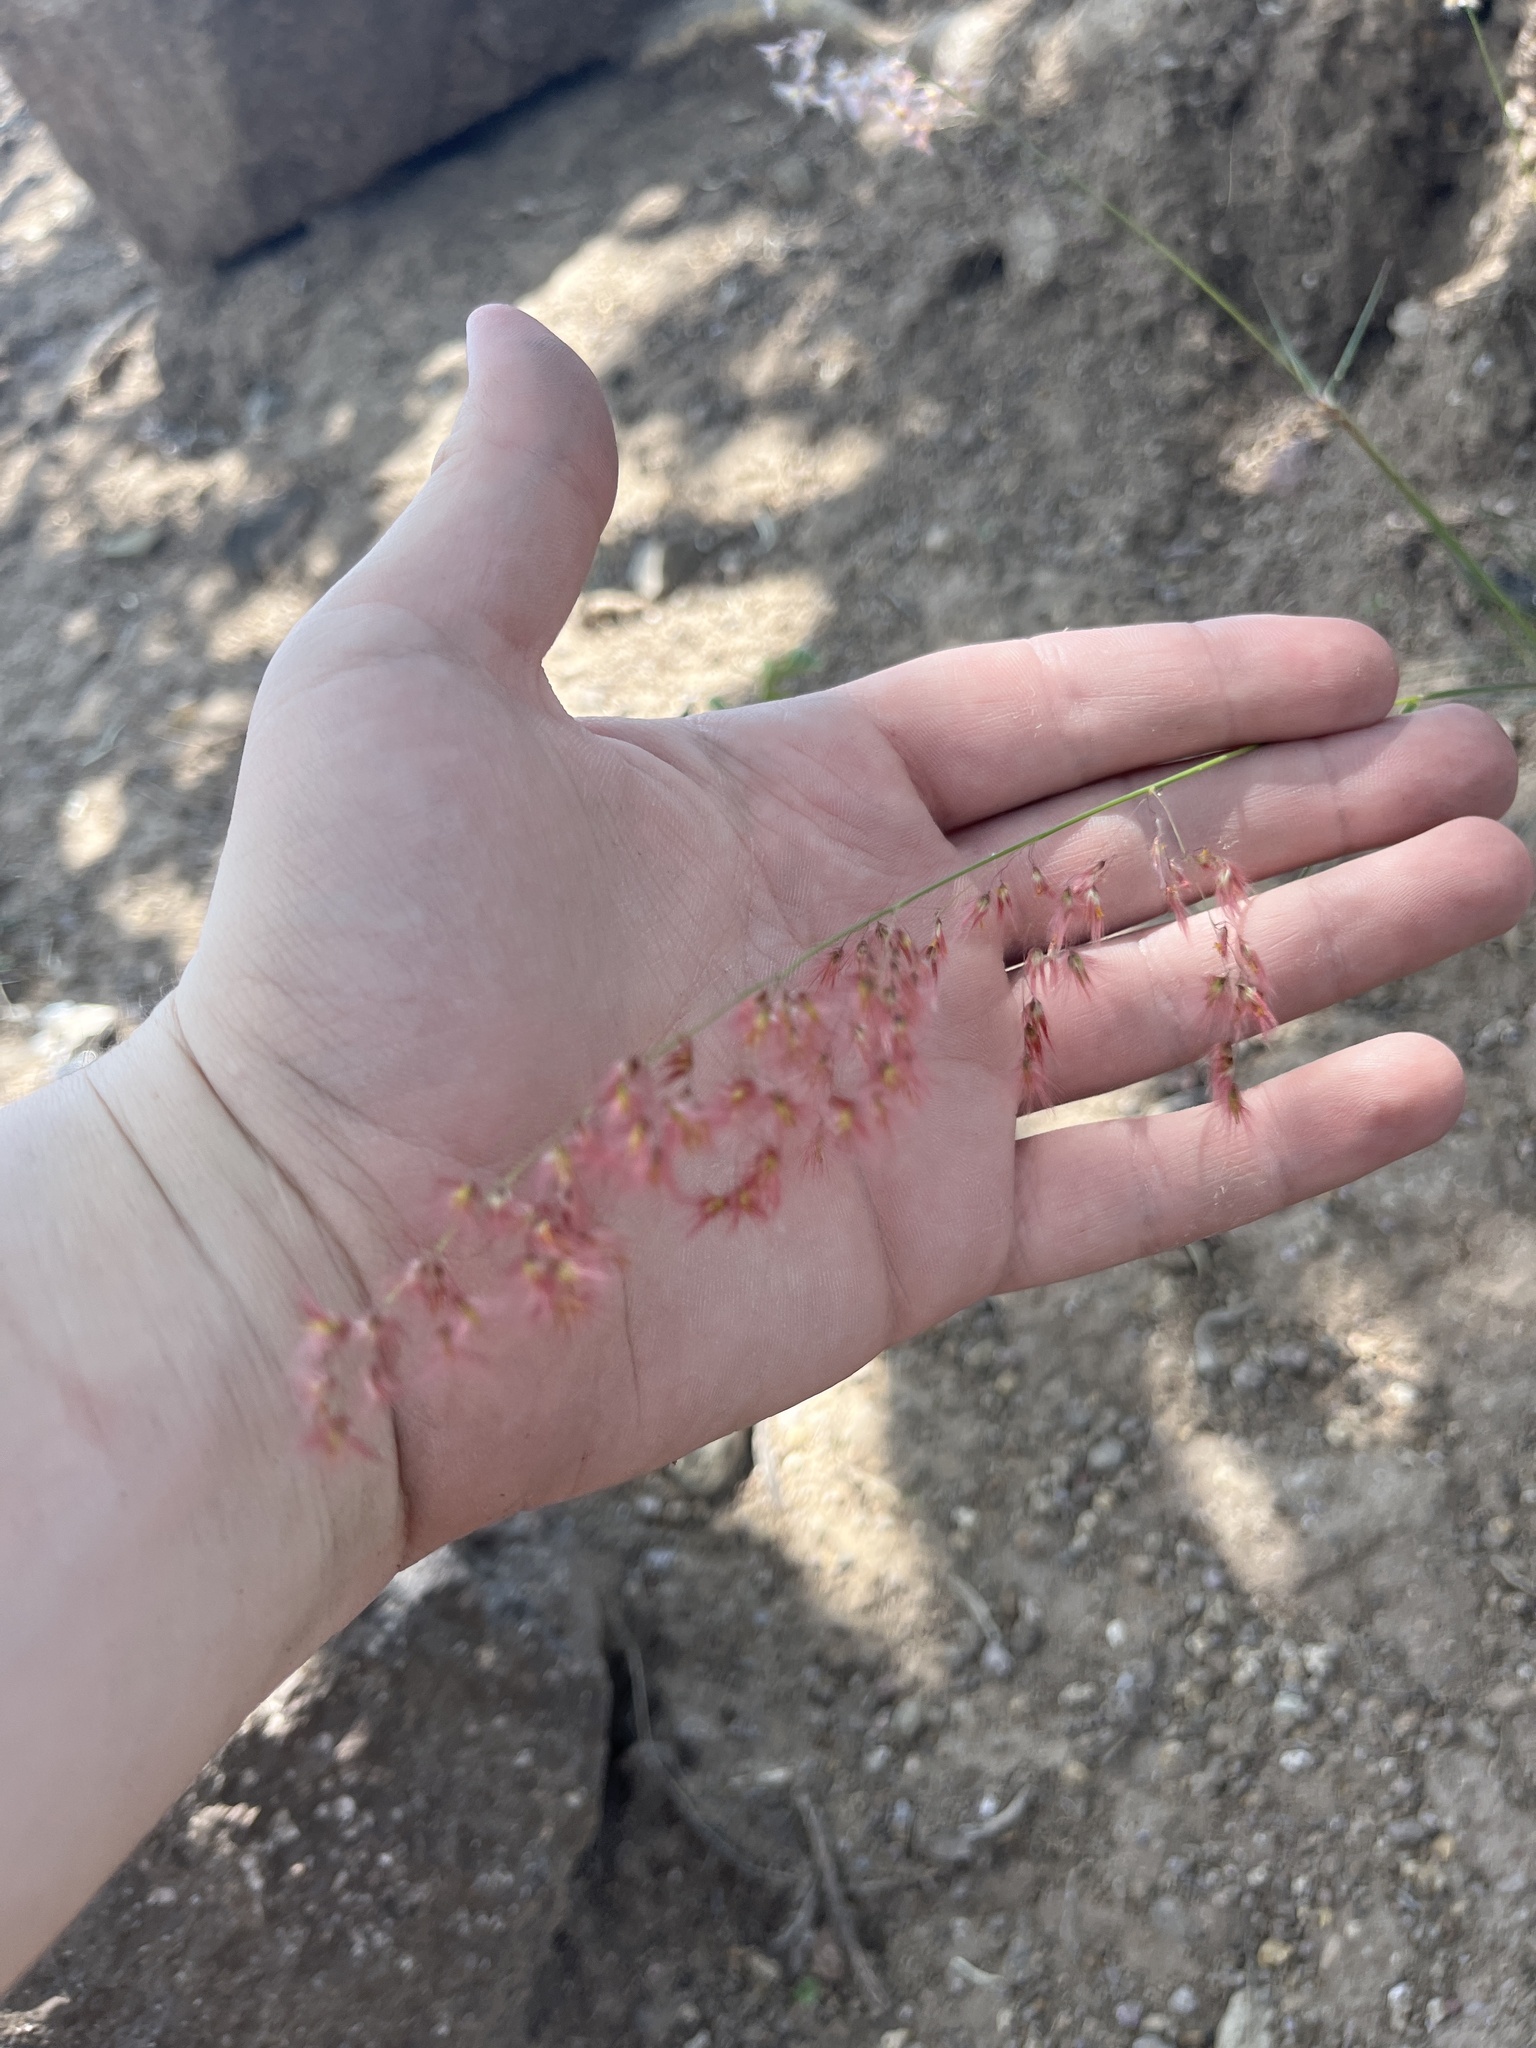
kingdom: Plantae
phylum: Tracheophyta
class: Liliopsida
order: Poales
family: Poaceae
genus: Melinis
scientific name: Melinis repens
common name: Rose natal grass
